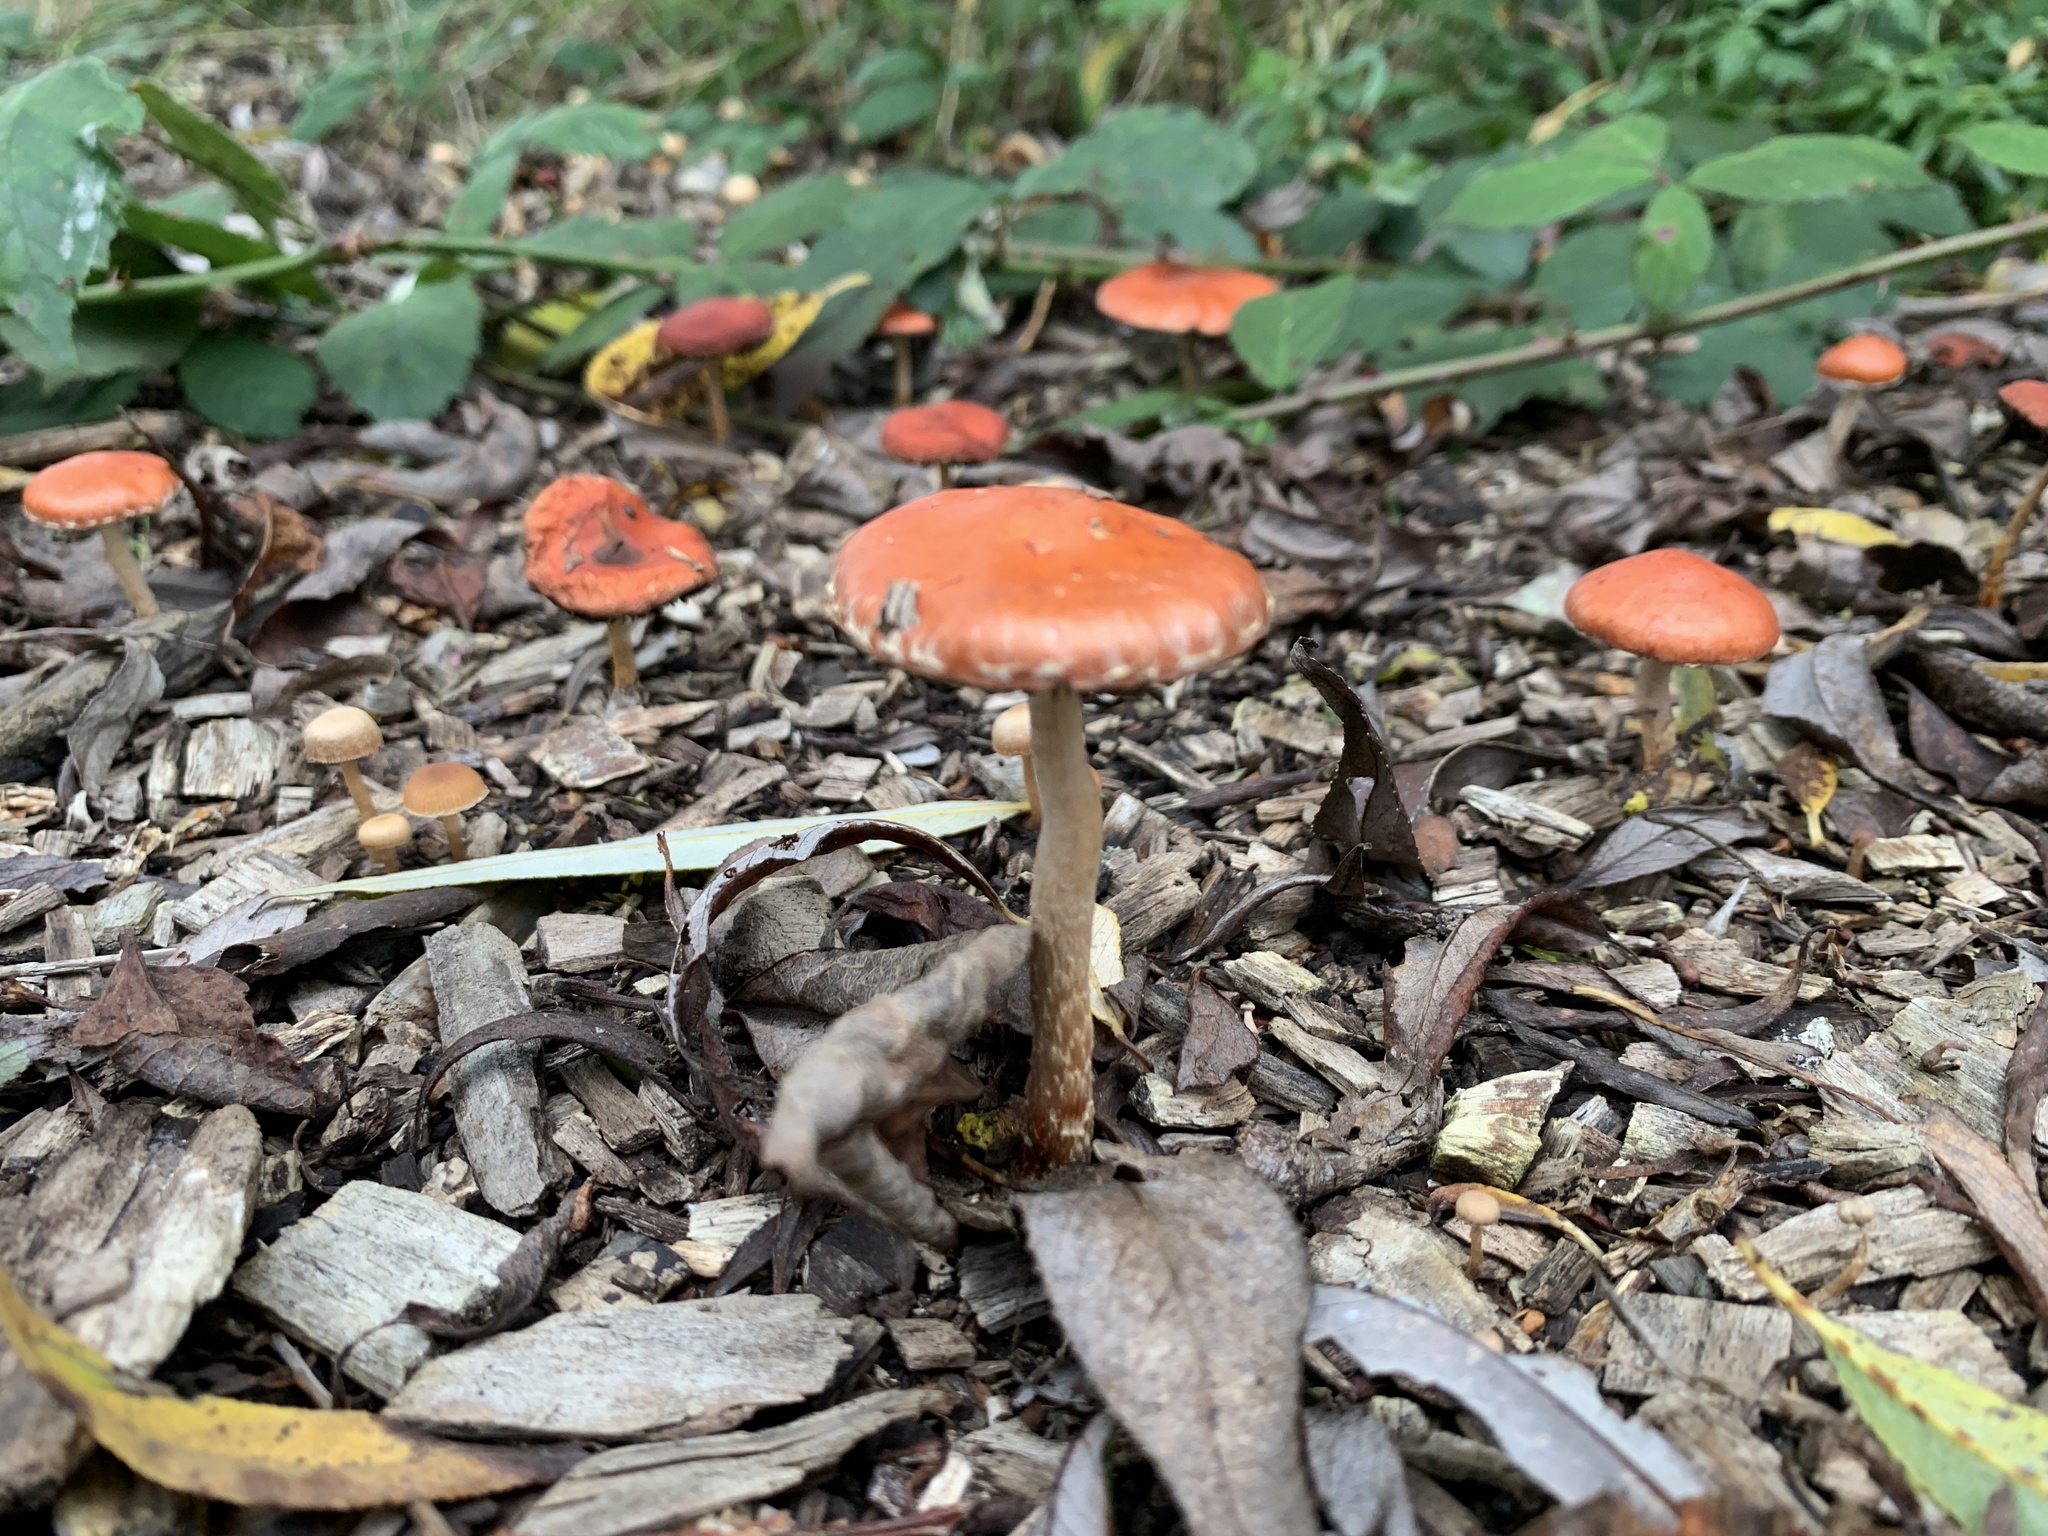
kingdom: Fungi
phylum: Basidiomycota
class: Agaricomycetes
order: Agaricales
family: Strophariaceae
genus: Leratiomyces
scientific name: Leratiomyces ceres
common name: Redlead roundhead
